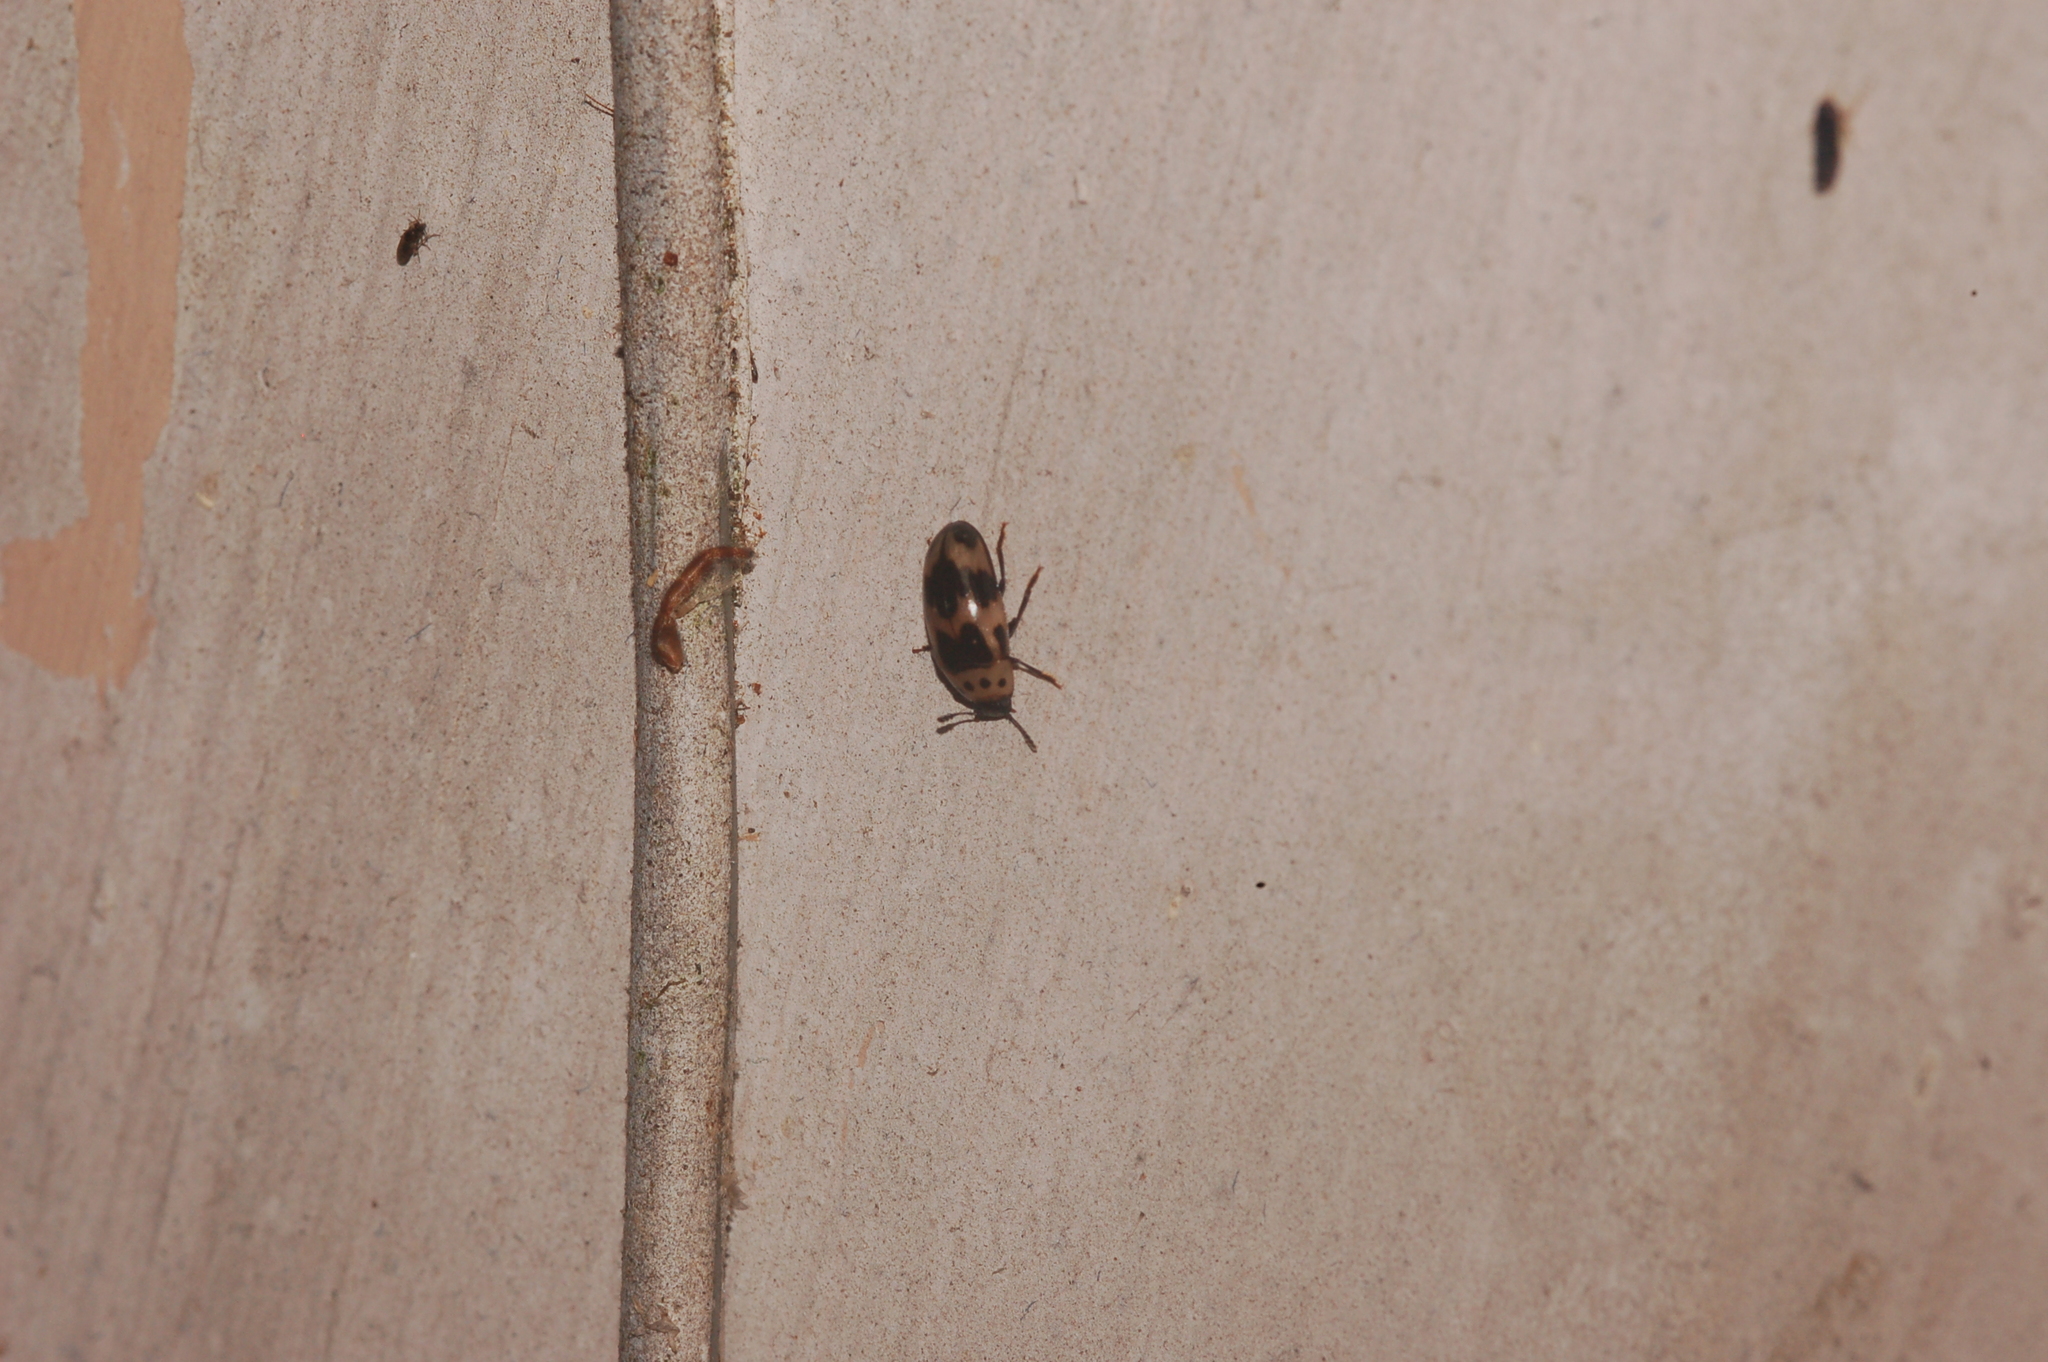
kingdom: Animalia
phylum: Arthropoda
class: Insecta
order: Coleoptera
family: Erotylidae
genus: Ischyrus
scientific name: Ischyrus quadripunctatus
